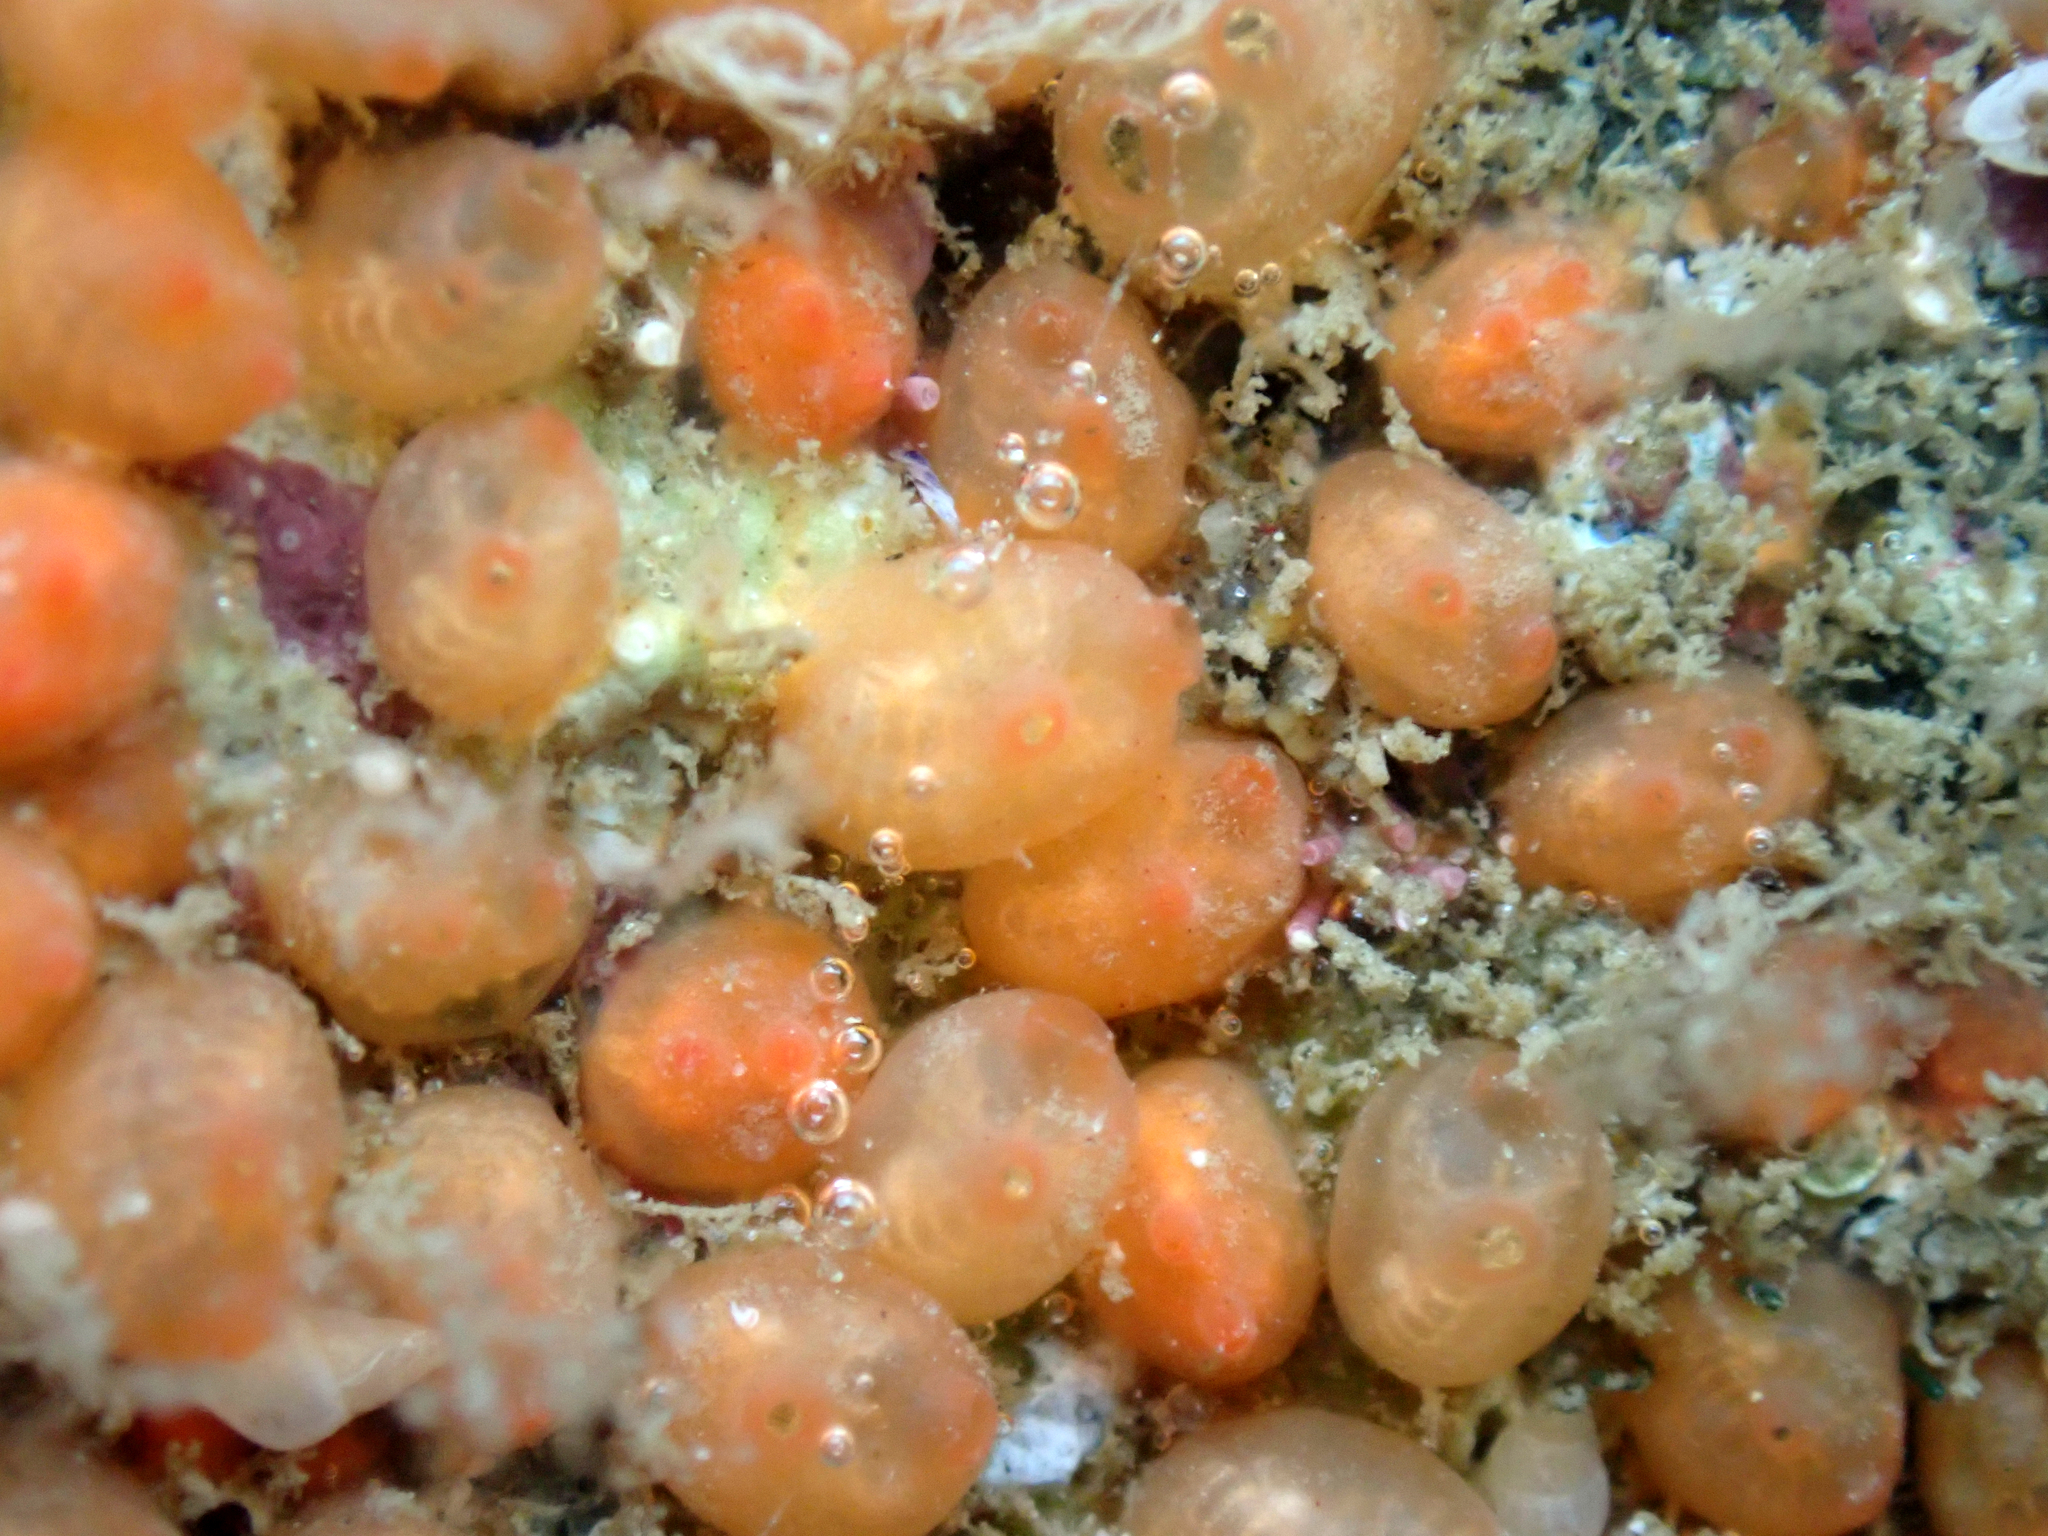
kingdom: Animalia
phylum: Chordata
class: Ascidiacea
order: Stolidobranchia
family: Styelidae
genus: Metandrocarpa
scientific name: Metandrocarpa taylori
